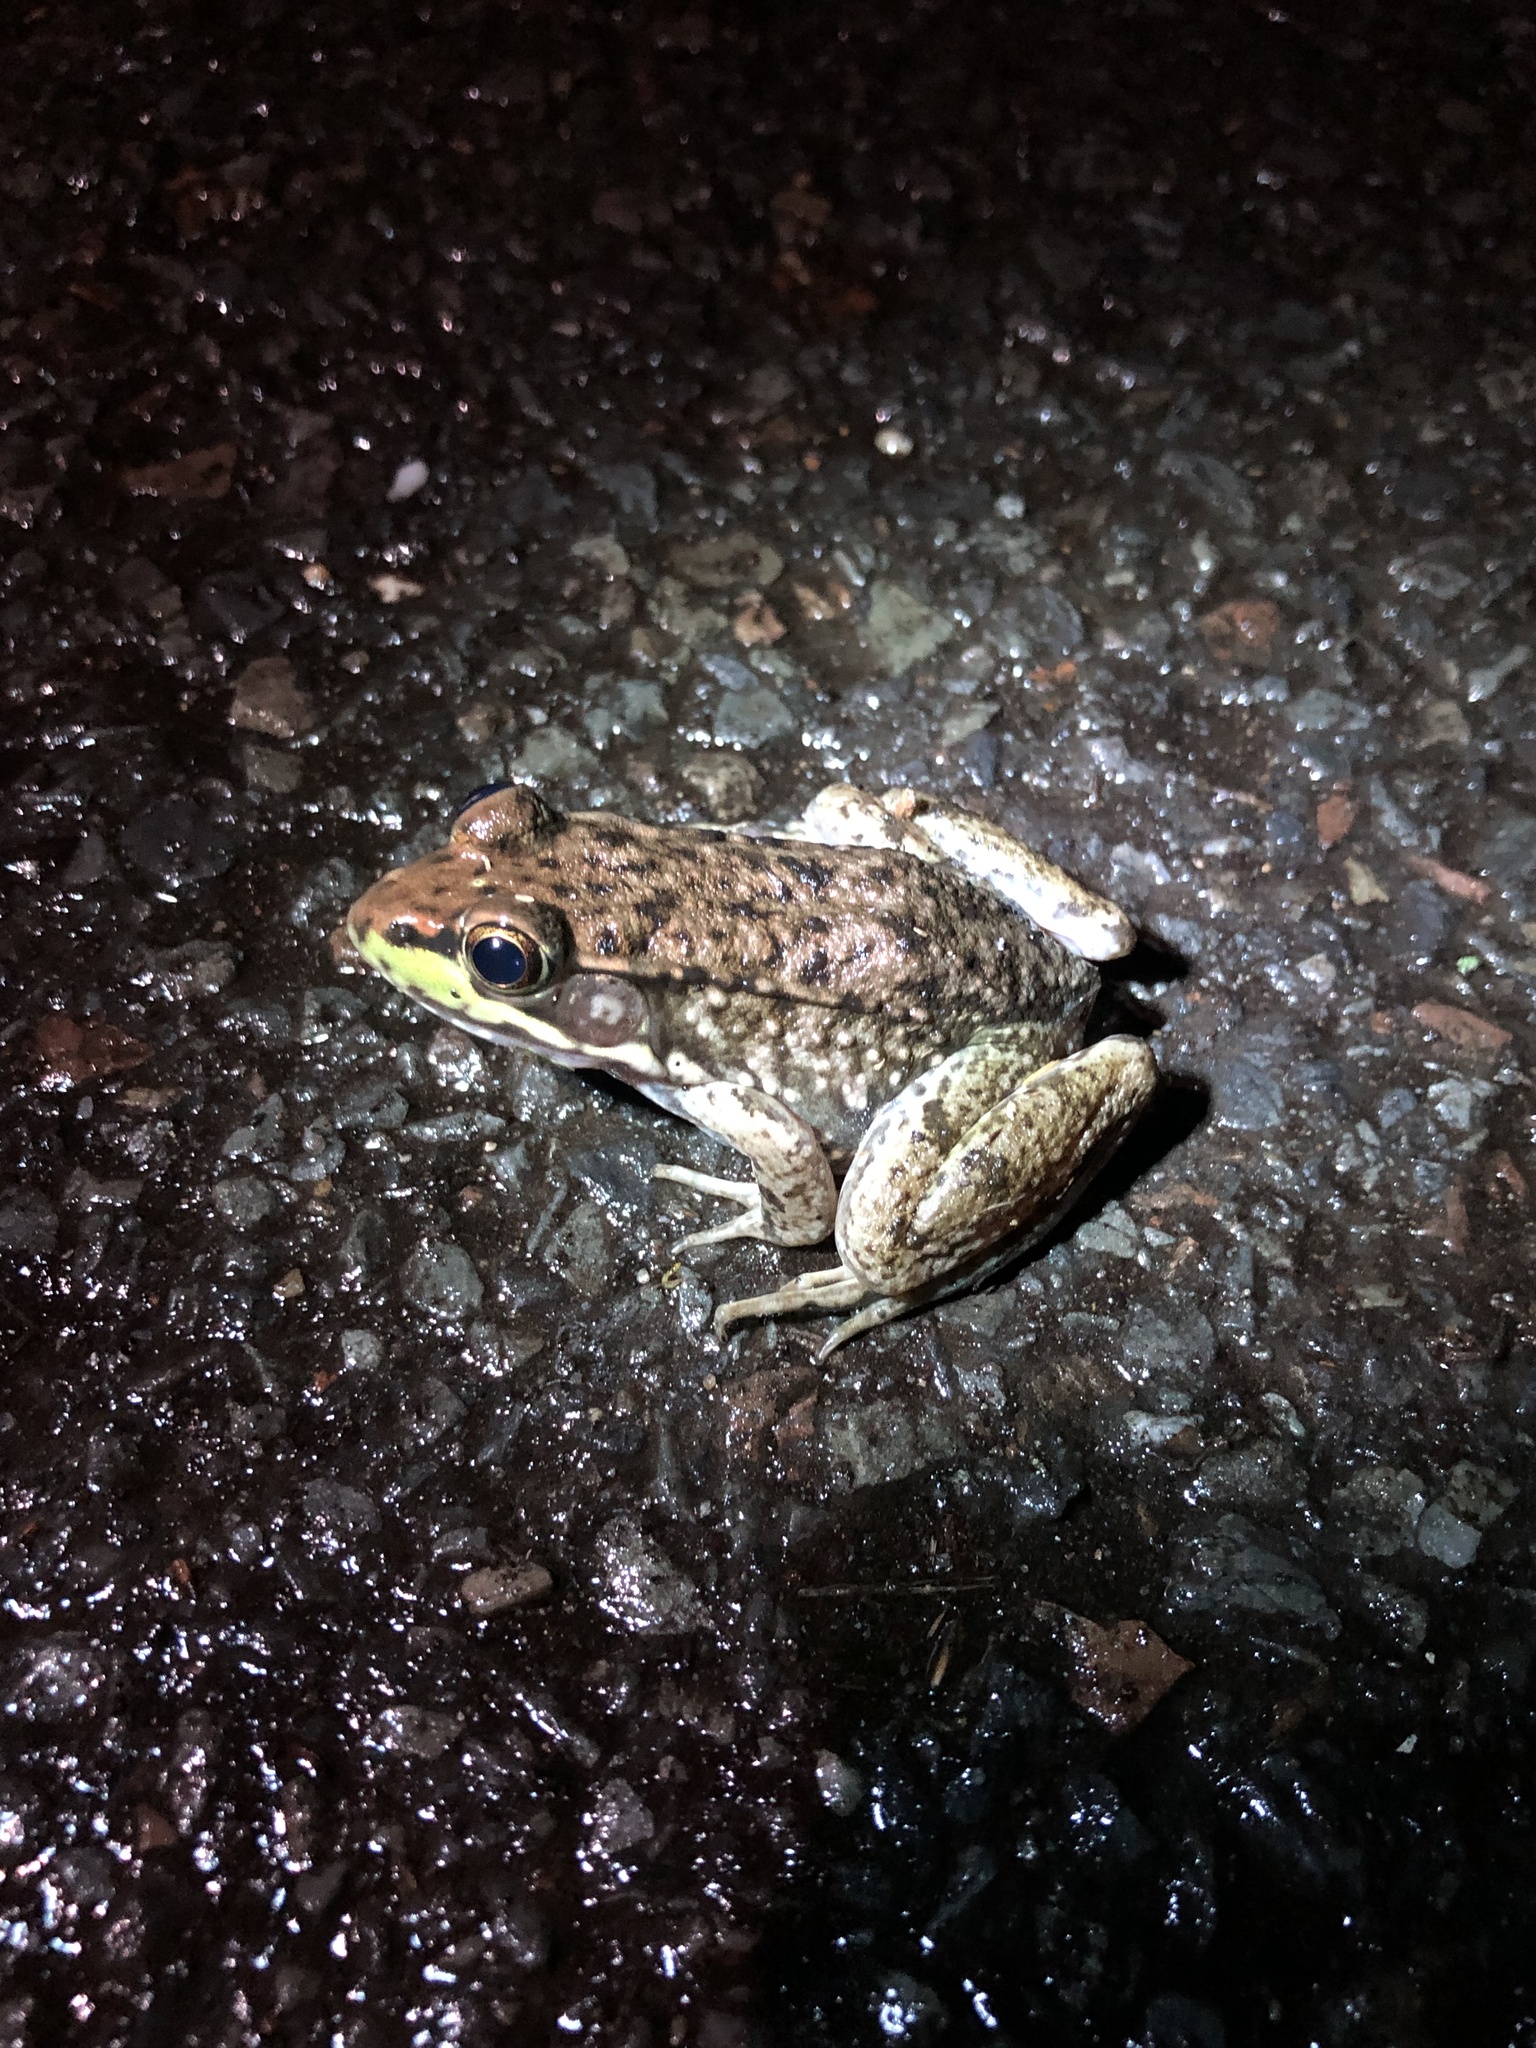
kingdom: Animalia
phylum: Chordata
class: Amphibia
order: Anura
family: Ranidae
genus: Lithobates
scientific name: Lithobates clamitans
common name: Green frog
